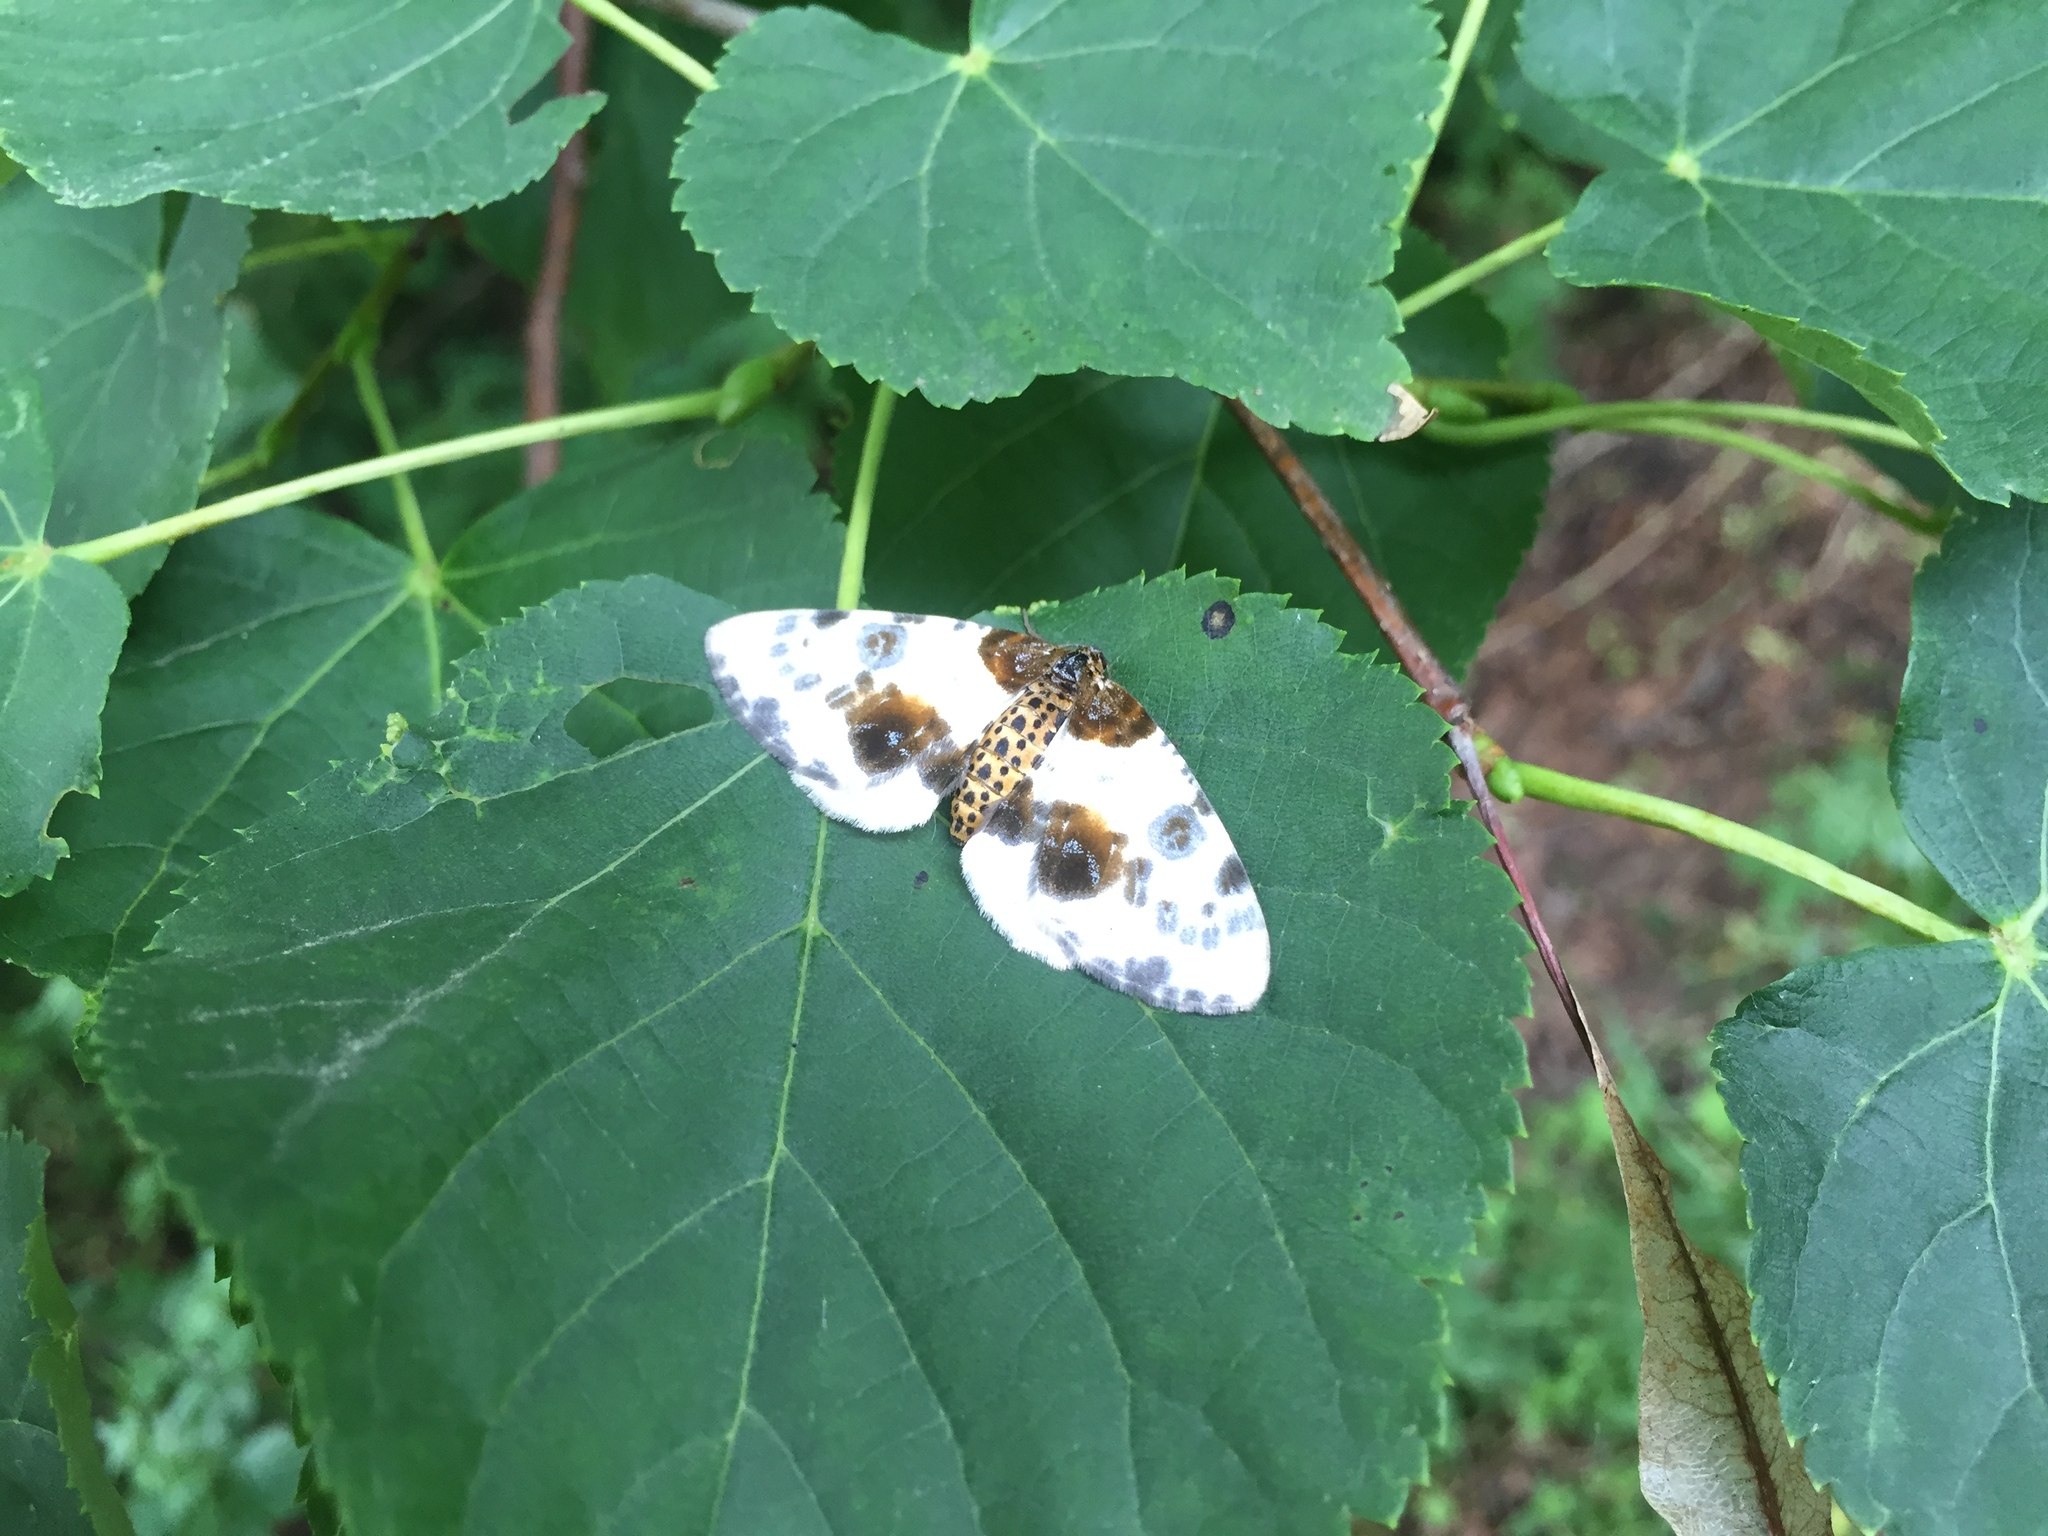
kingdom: Animalia
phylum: Arthropoda
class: Insecta
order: Lepidoptera
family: Geometridae
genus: Abraxas
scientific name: Abraxas sylvata
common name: Clouded magpie
